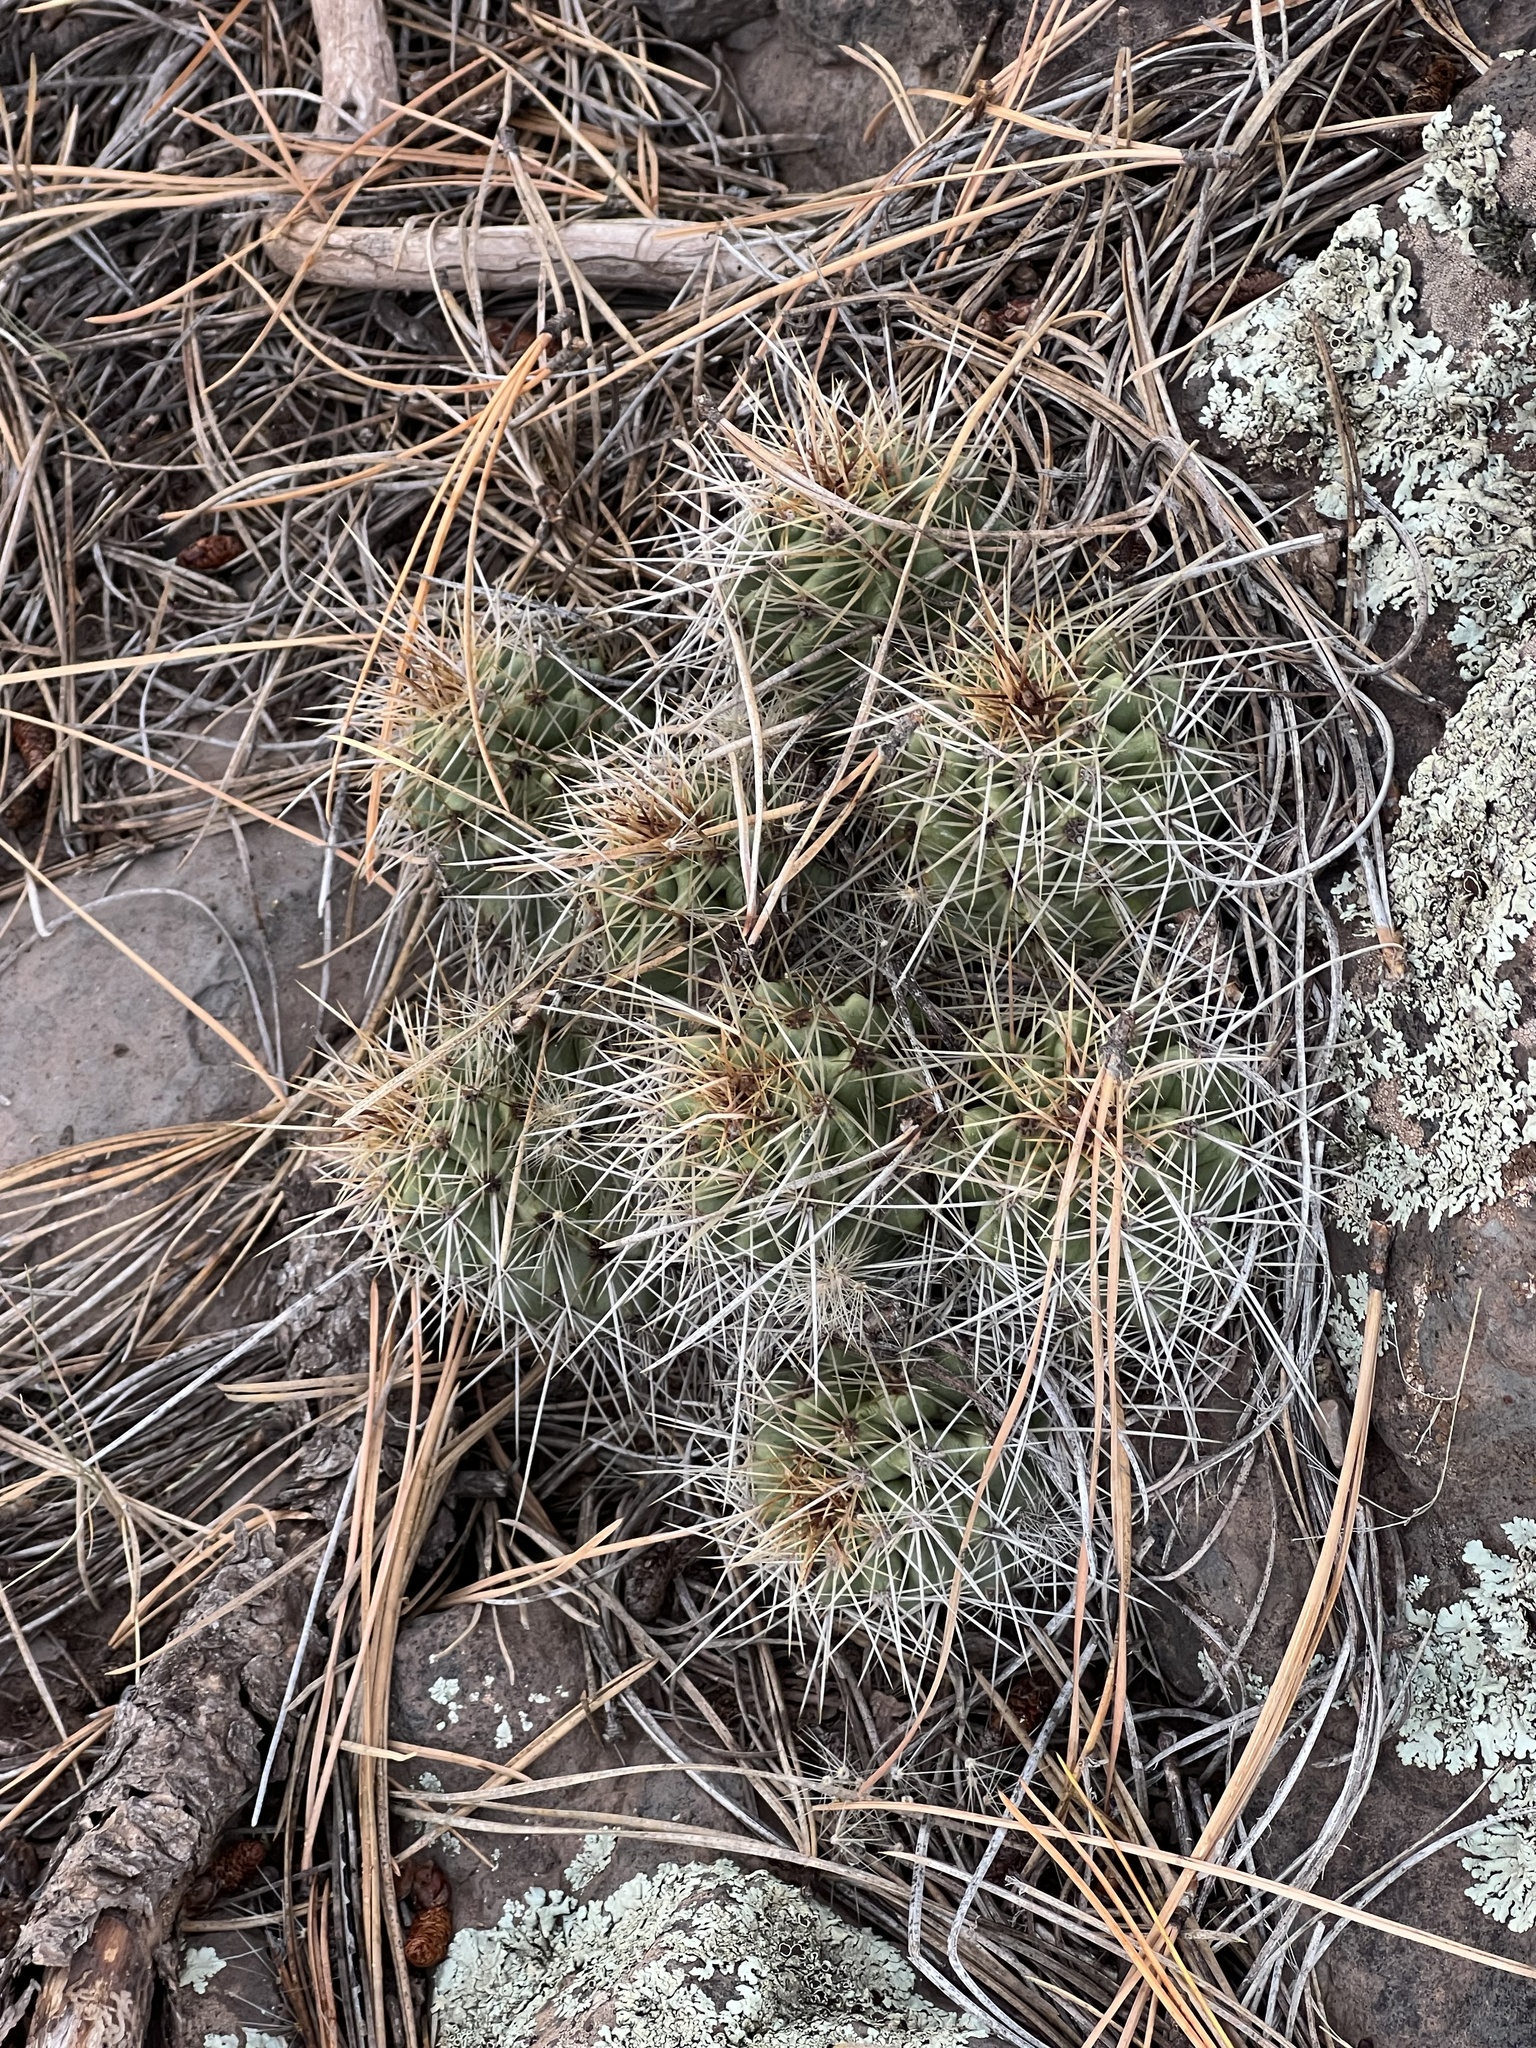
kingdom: Plantae
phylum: Tracheophyta
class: Magnoliopsida
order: Caryophyllales
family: Cactaceae
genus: Echinocereus
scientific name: Echinocereus bakeri
